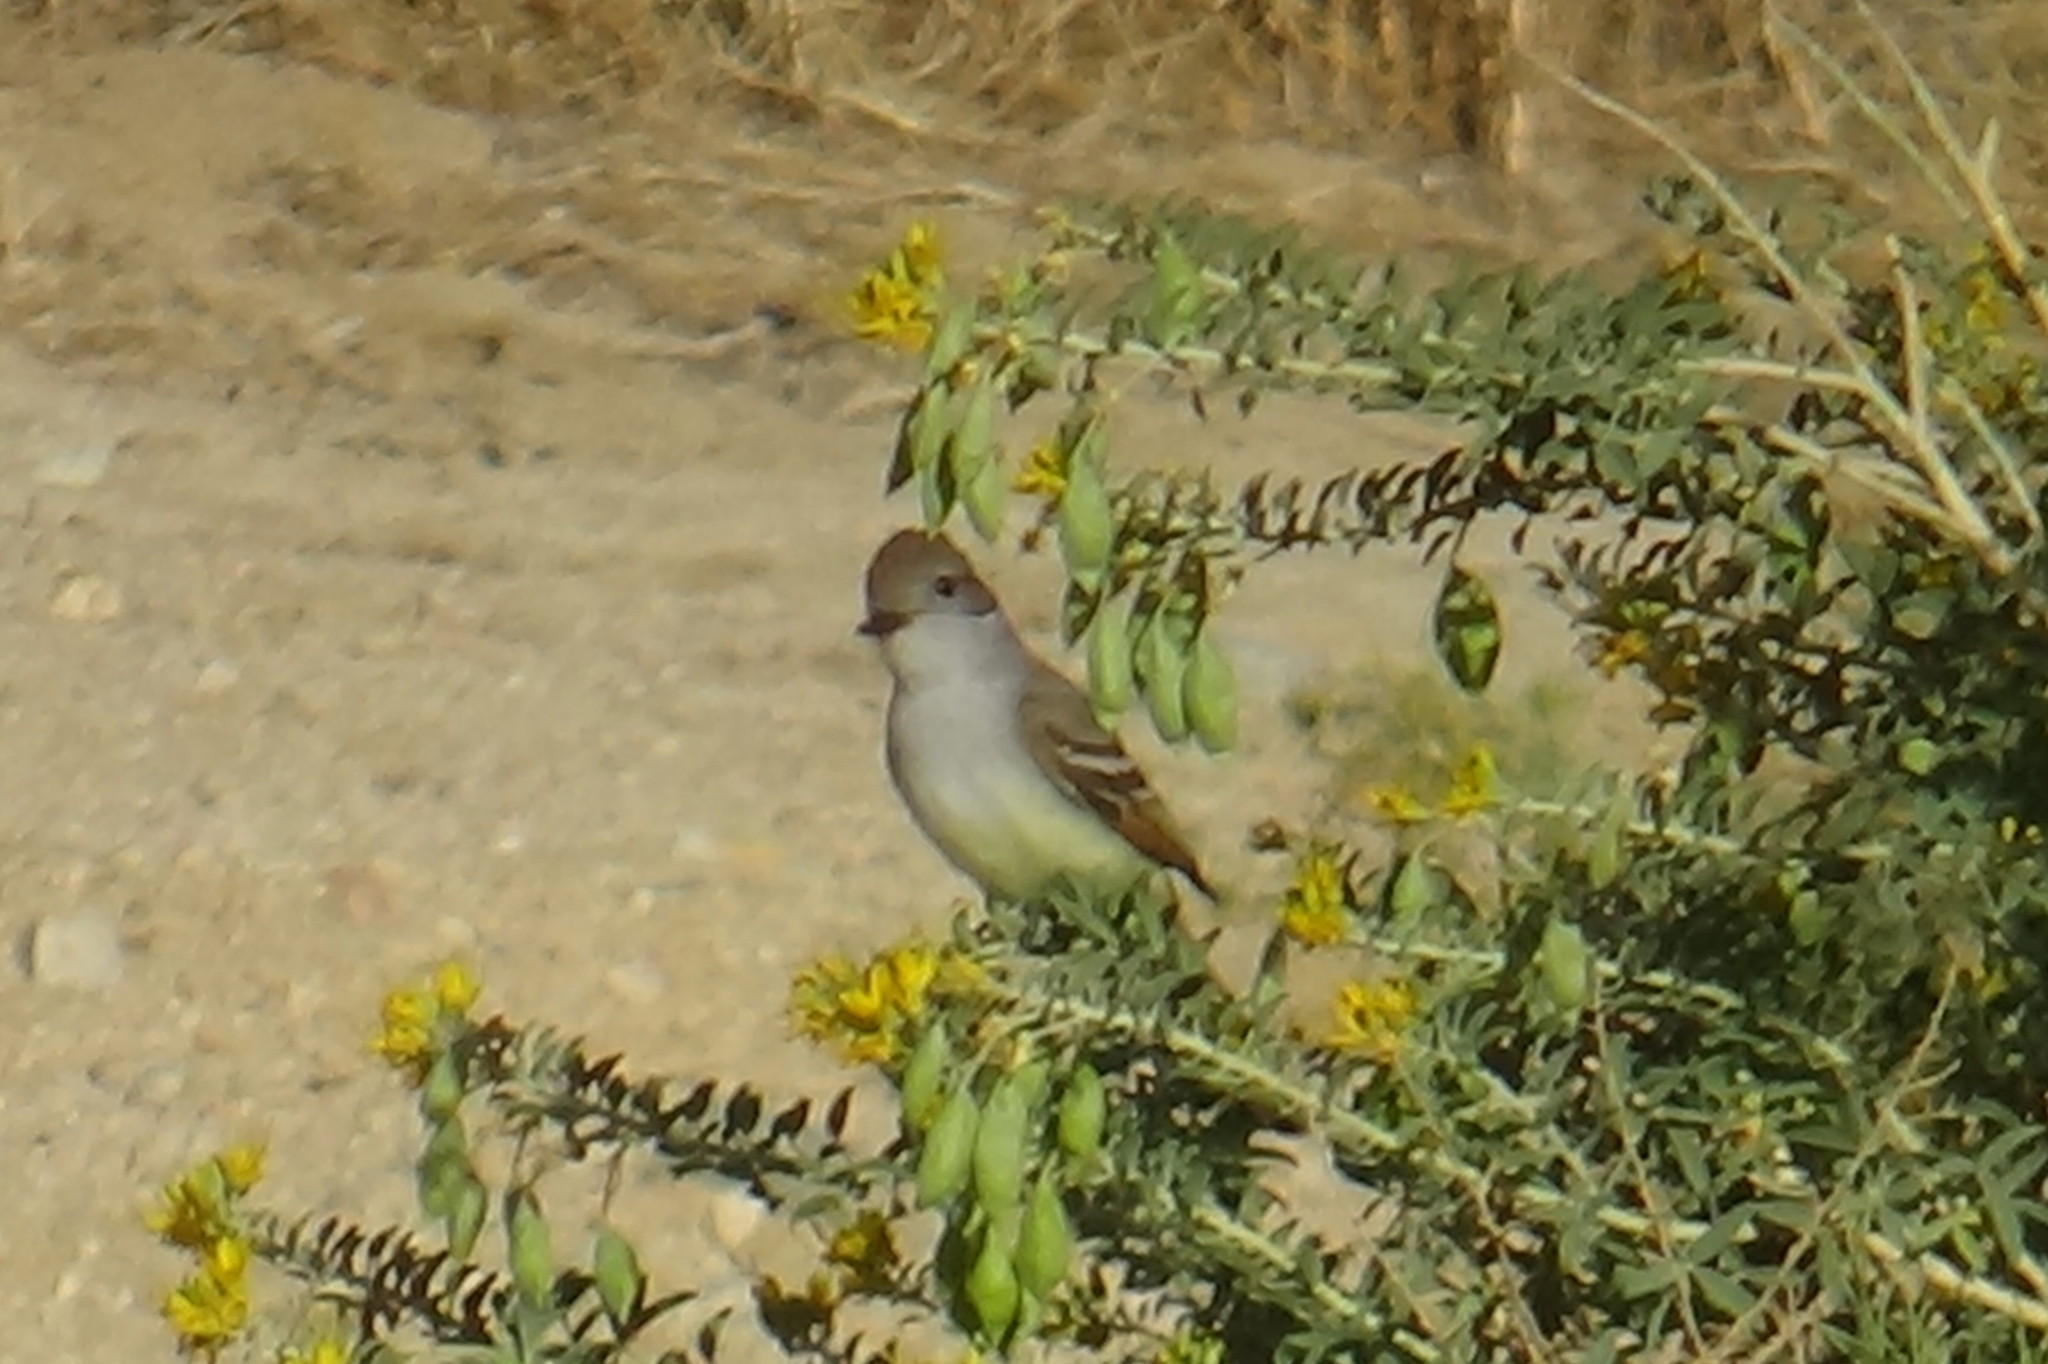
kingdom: Animalia
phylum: Chordata
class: Aves
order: Passeriformes
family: Tyrannidae
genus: Myiarchus
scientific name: Myiarchus cinerascens
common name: Ash-throated flycatcher
